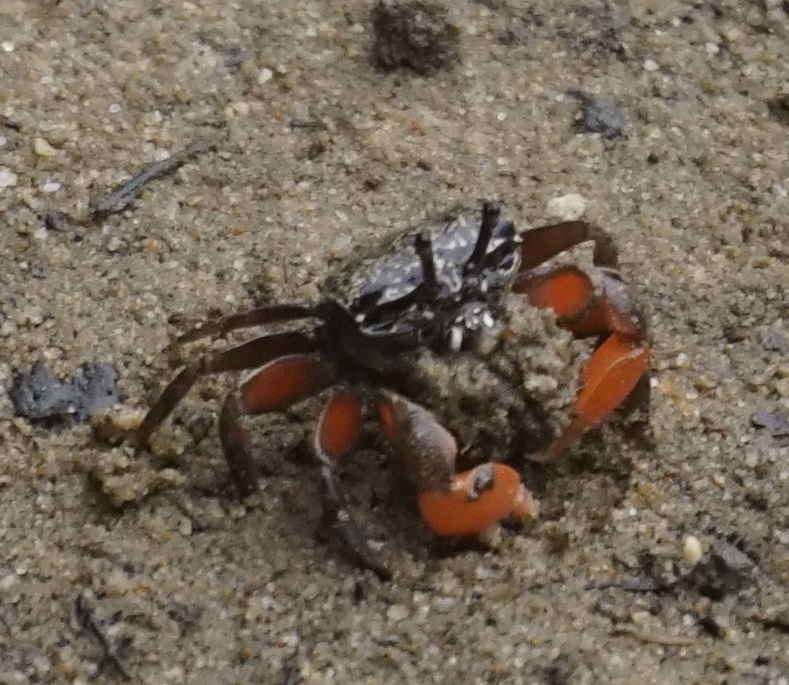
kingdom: Animalia
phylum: Arthropoda
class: Malacostraca
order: Decapoda
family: Heloeciidae
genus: Heloecius
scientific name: Heloecius cordiformis
